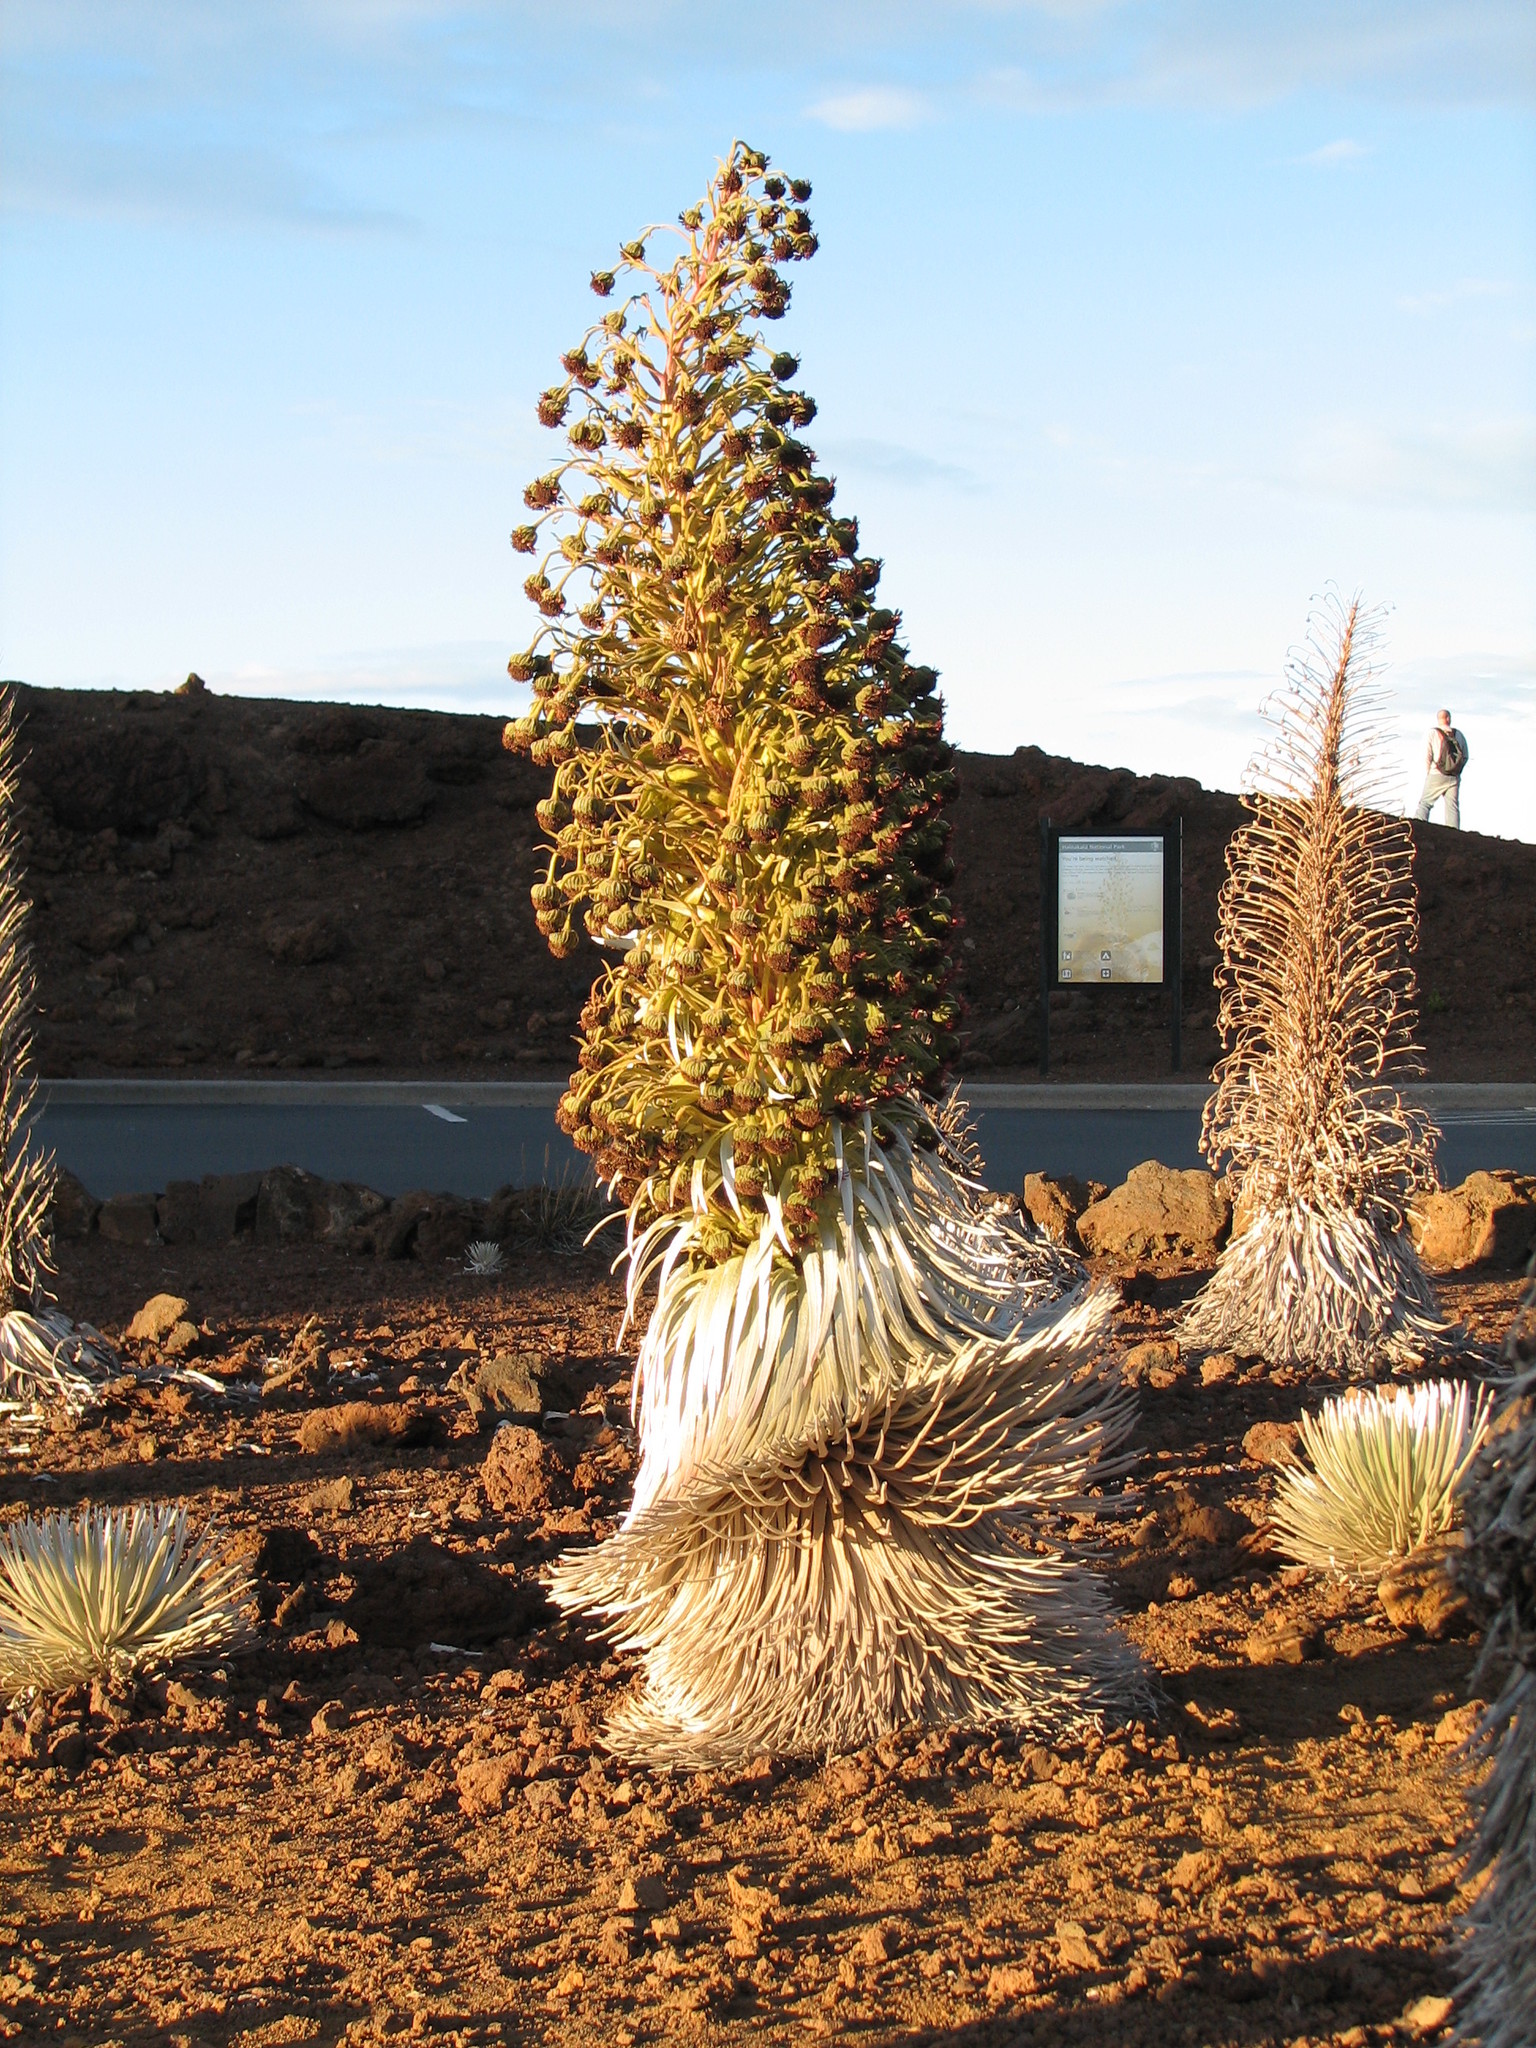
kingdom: Plantae
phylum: Tracheophyta
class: Magnoliopsida
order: Asterales
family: Asteraceae
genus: Argyroxiphium
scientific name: Argyroxiphium sandwicense
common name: Silversword
